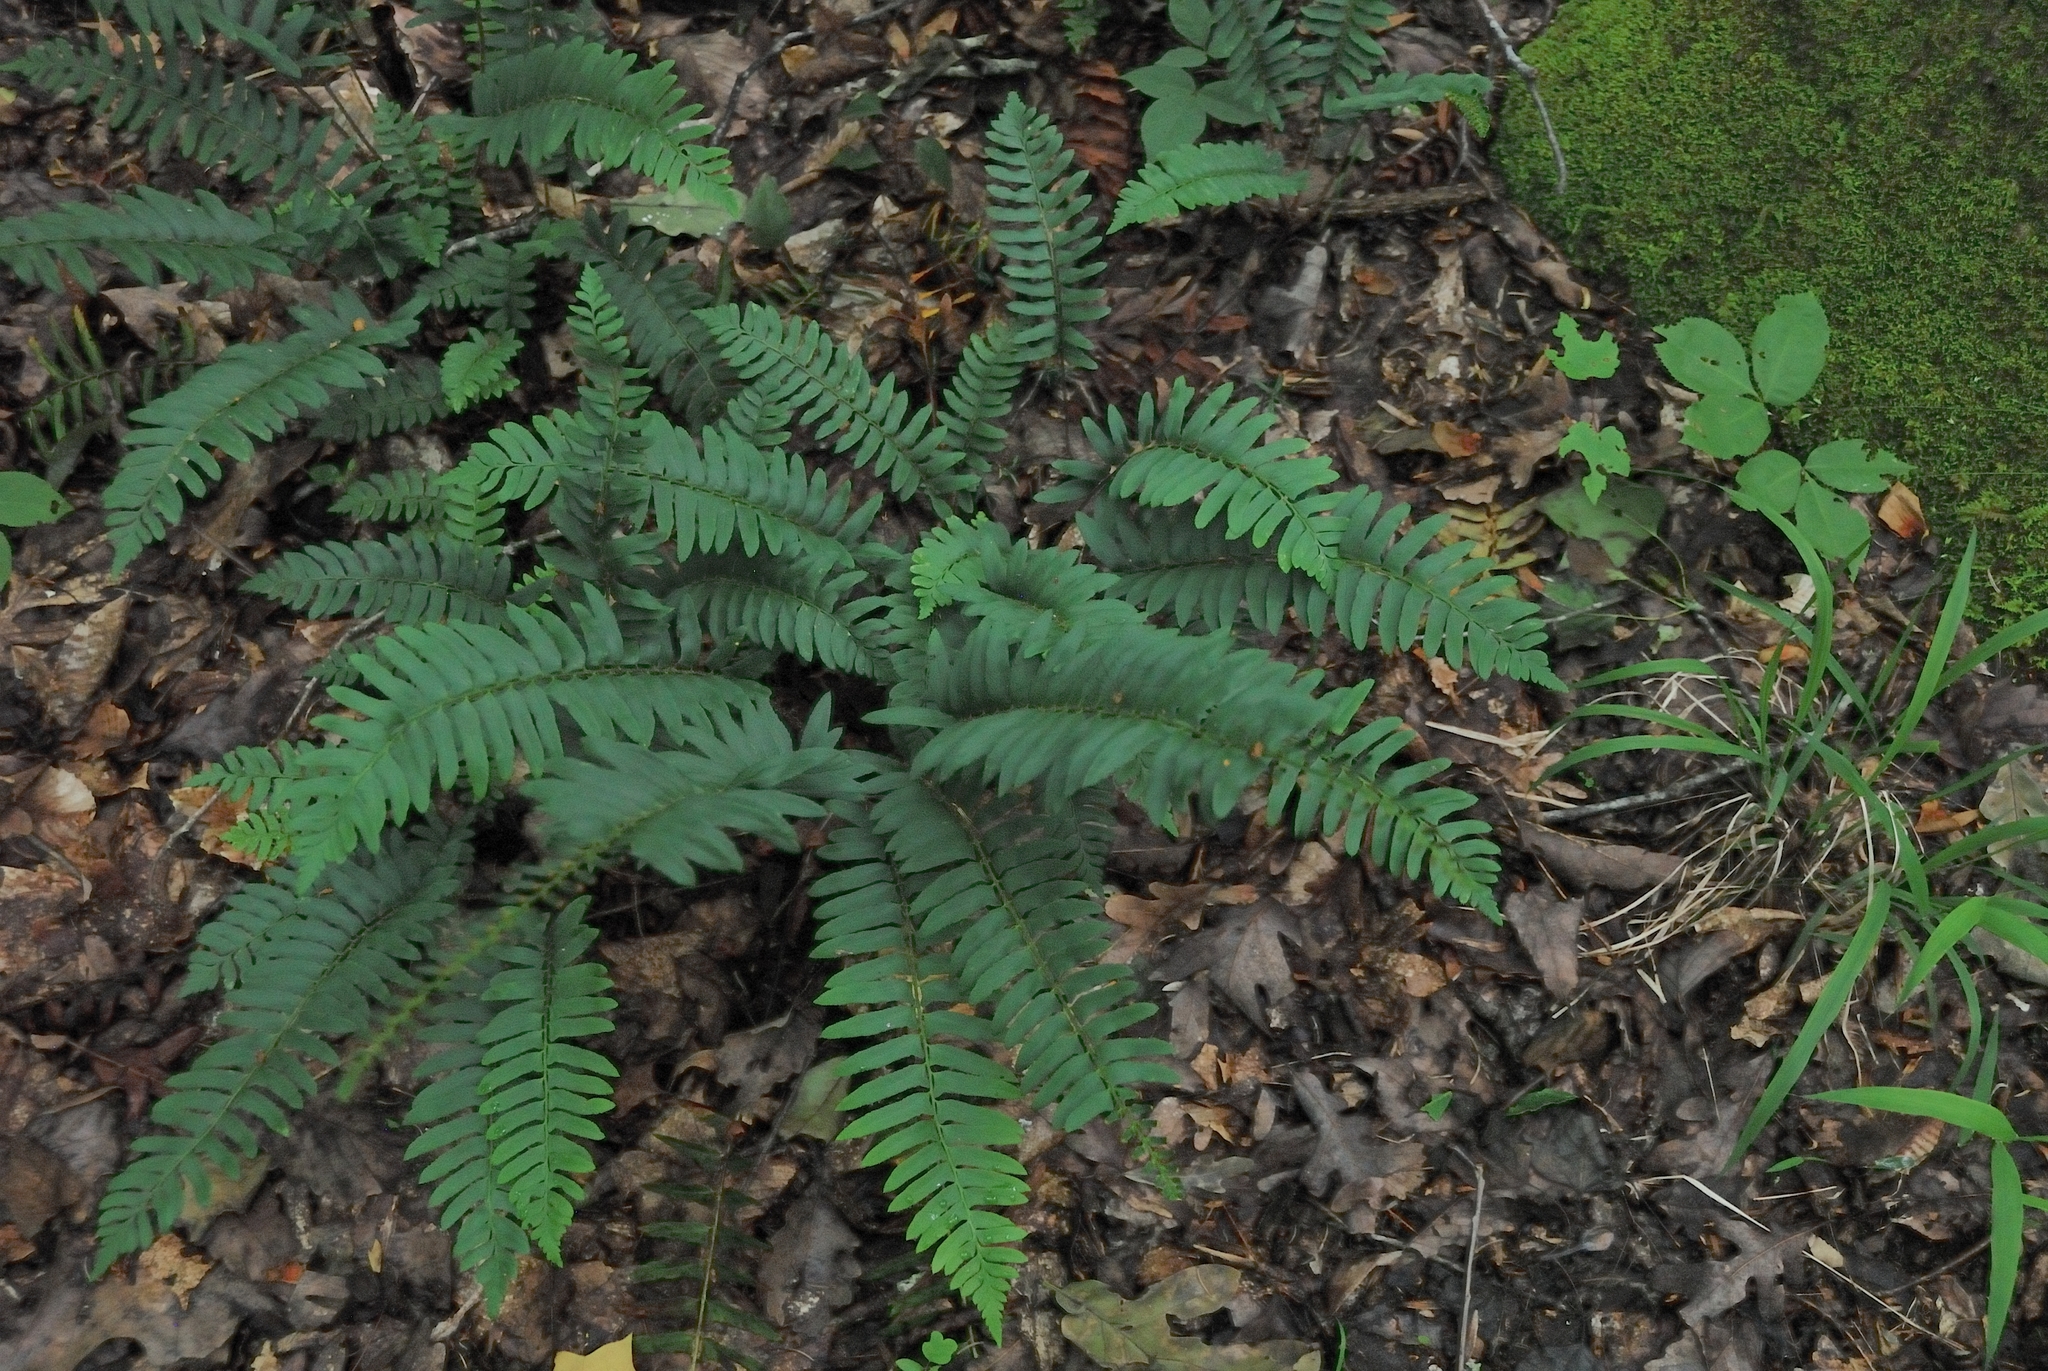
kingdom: Plantae
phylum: Tracheophyta
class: Polypodiopsida
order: Polypodiales
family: Dryopteridaceae
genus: Polystichum
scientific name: Polystichum acrostichoides
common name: Christmas fern
